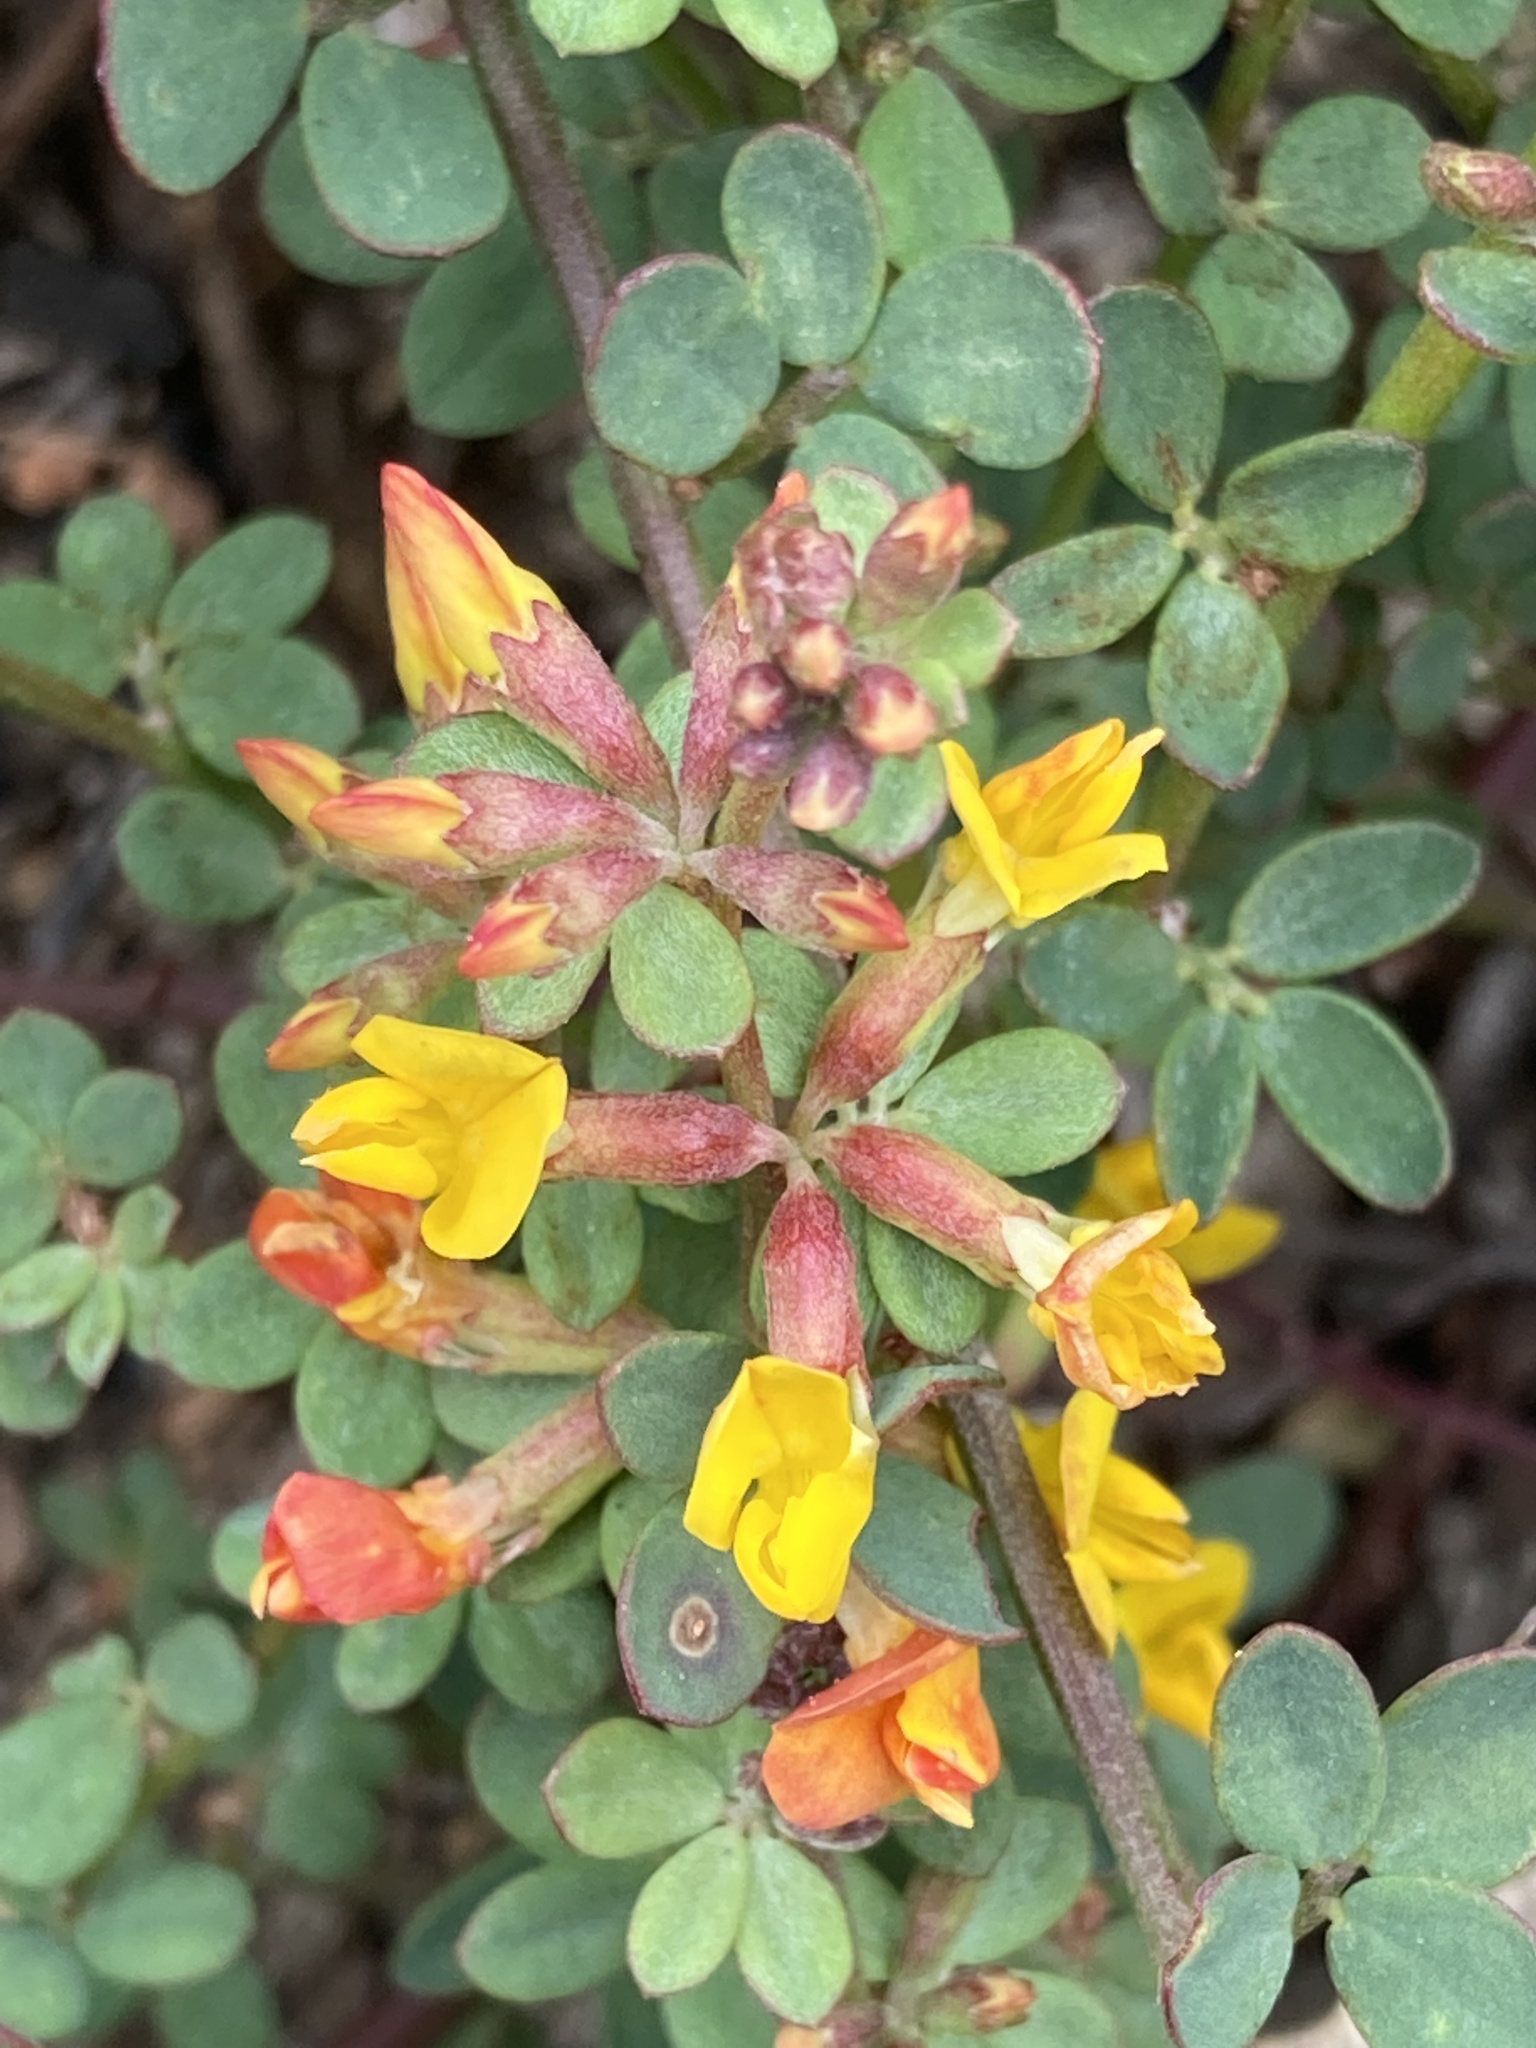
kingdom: Plantae
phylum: Tracheophyta
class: Magnoliopsida
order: Fabales
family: Fabaceae
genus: Acmispon
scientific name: Acmispon junceus
